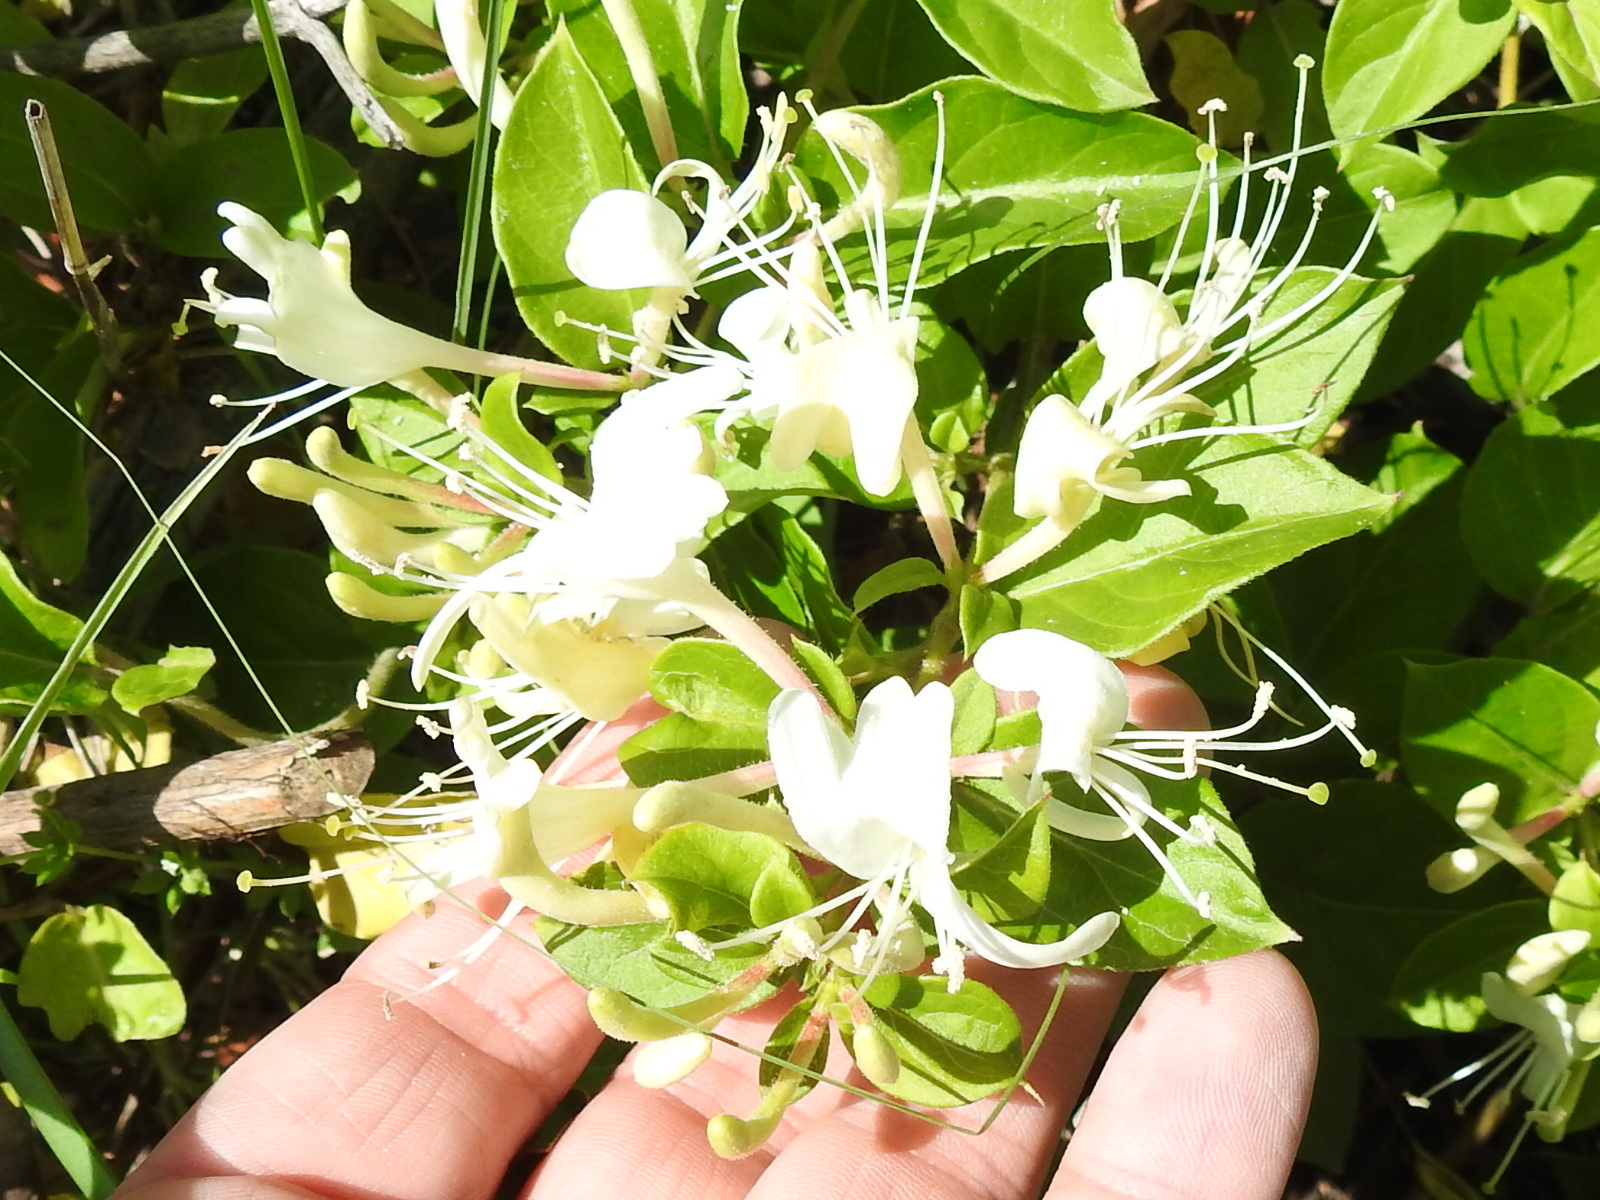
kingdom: Plantae
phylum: Tracheophyta
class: Magnoliopsida
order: Dipsacales
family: Caprifoliaceae
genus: Lonicera
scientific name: Lonicera japonica
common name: Japanese honeysuckle
